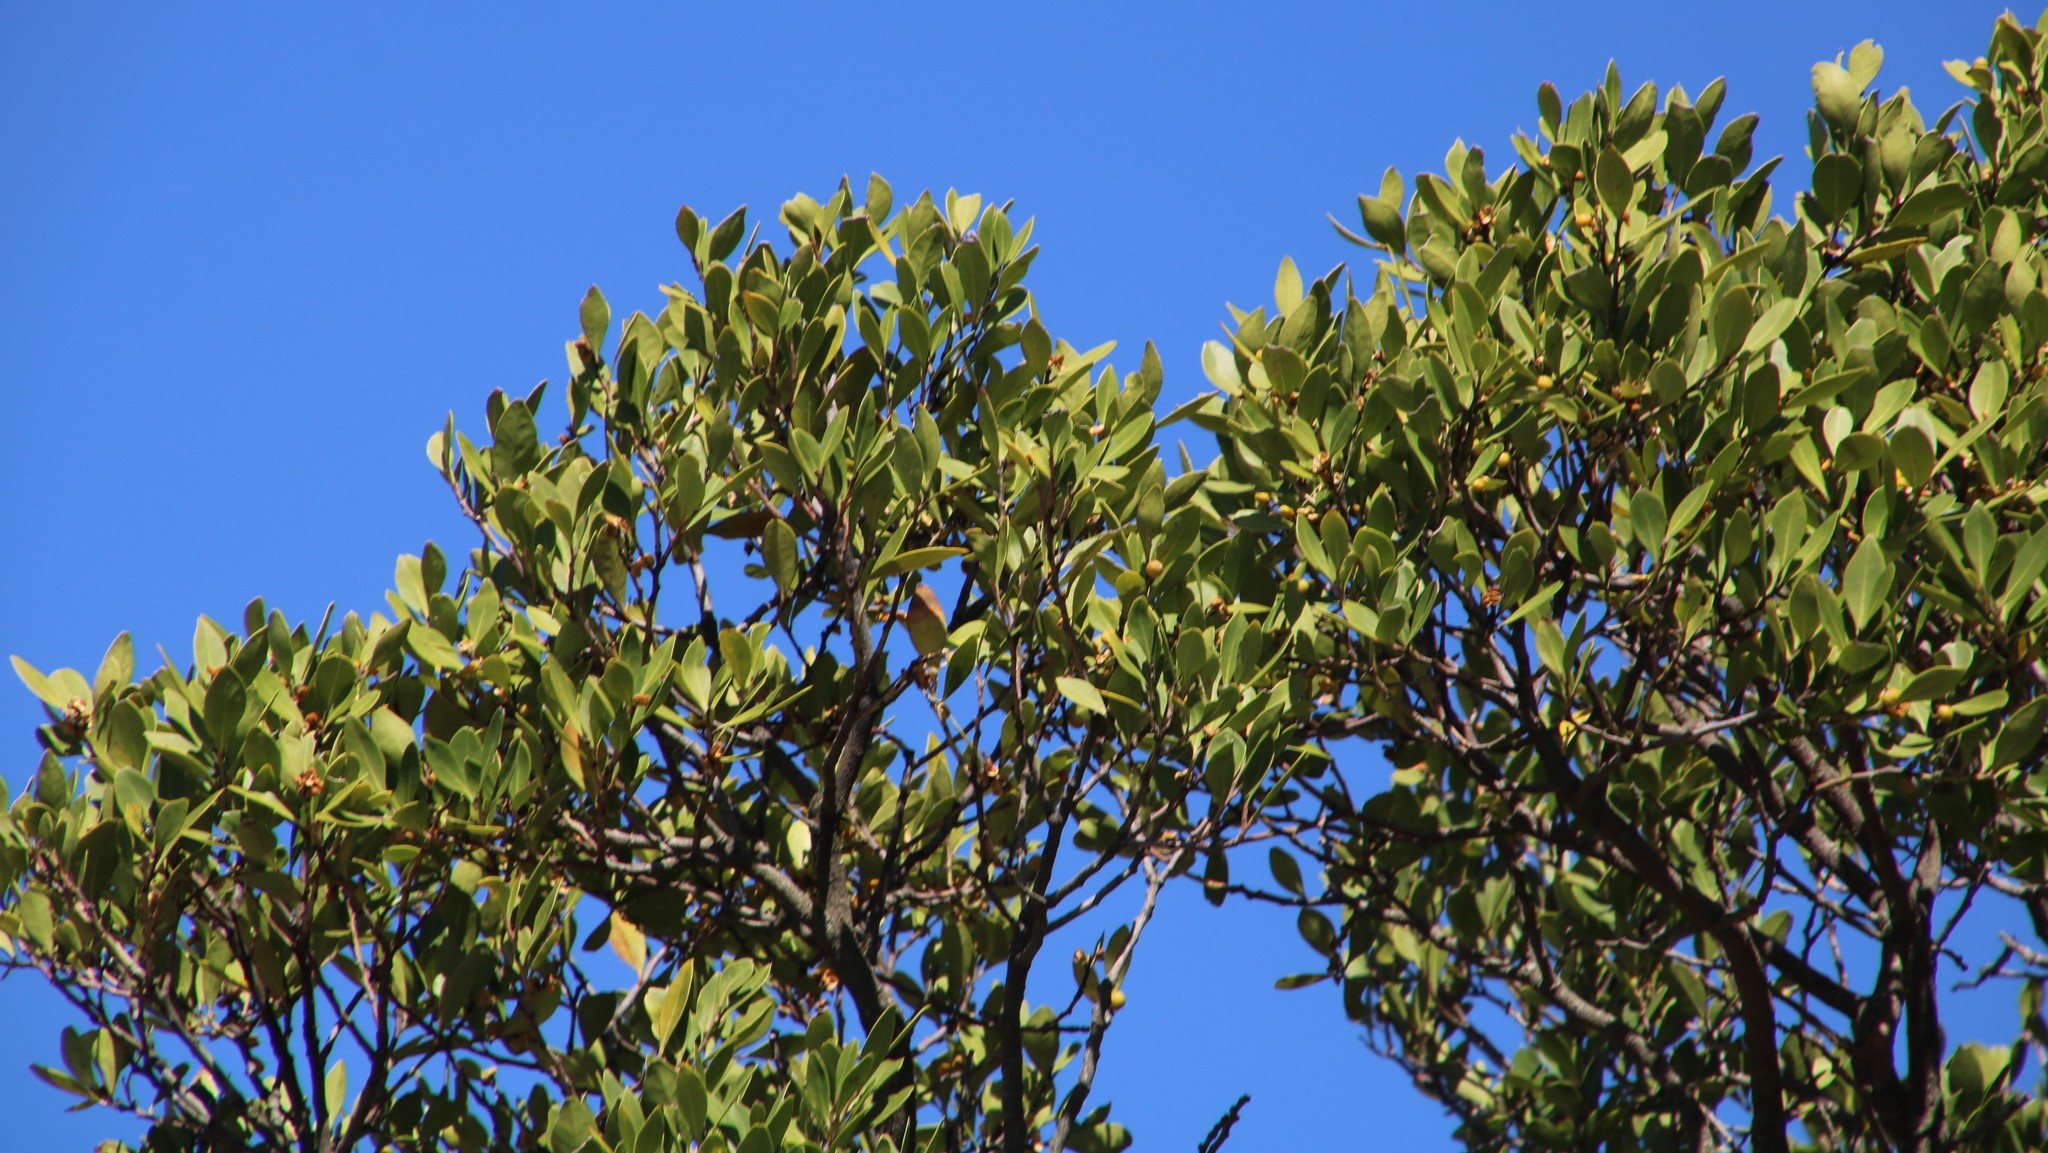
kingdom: Plantae
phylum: Tracheophyta
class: Magnoliopsida
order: Celastrales
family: Celastraceae
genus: Gymnosporia
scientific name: Gymnosporia laurina
